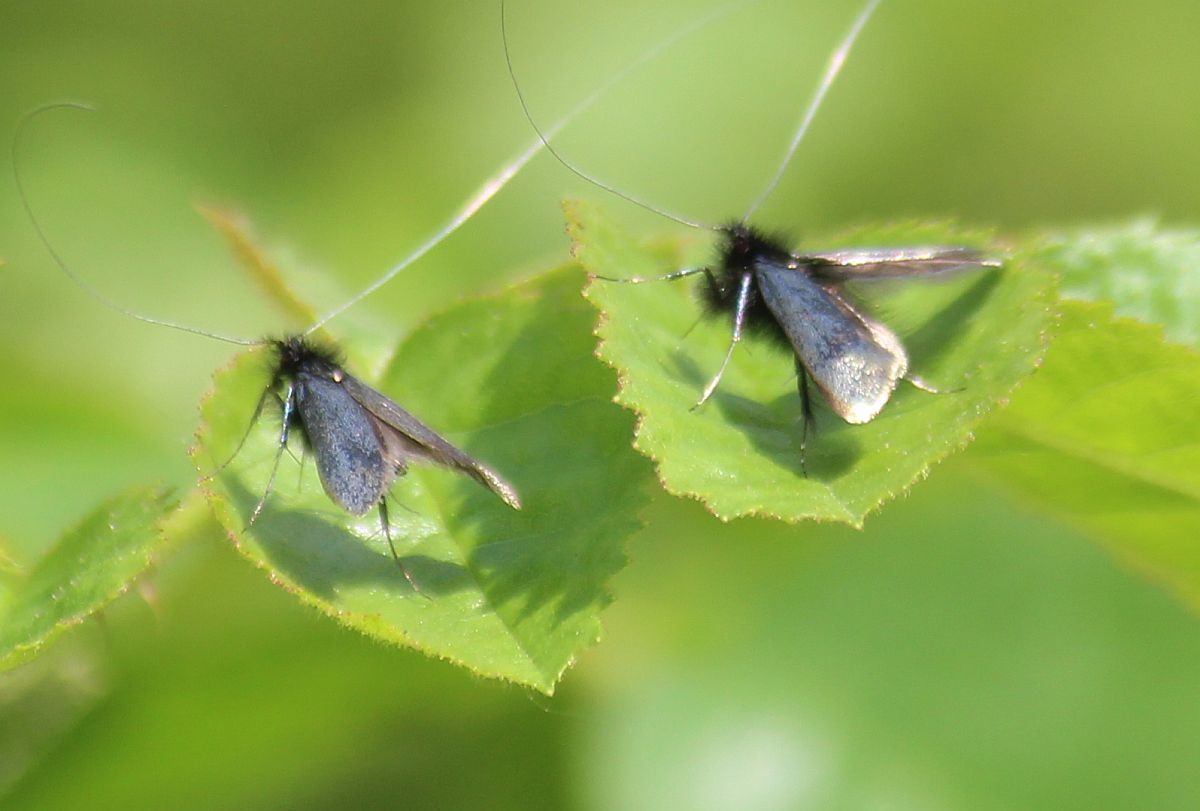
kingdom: Animalia
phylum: Arthropoda
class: Insecta
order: Lepidoptera
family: Adelidae
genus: Adela
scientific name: Adela viridella
